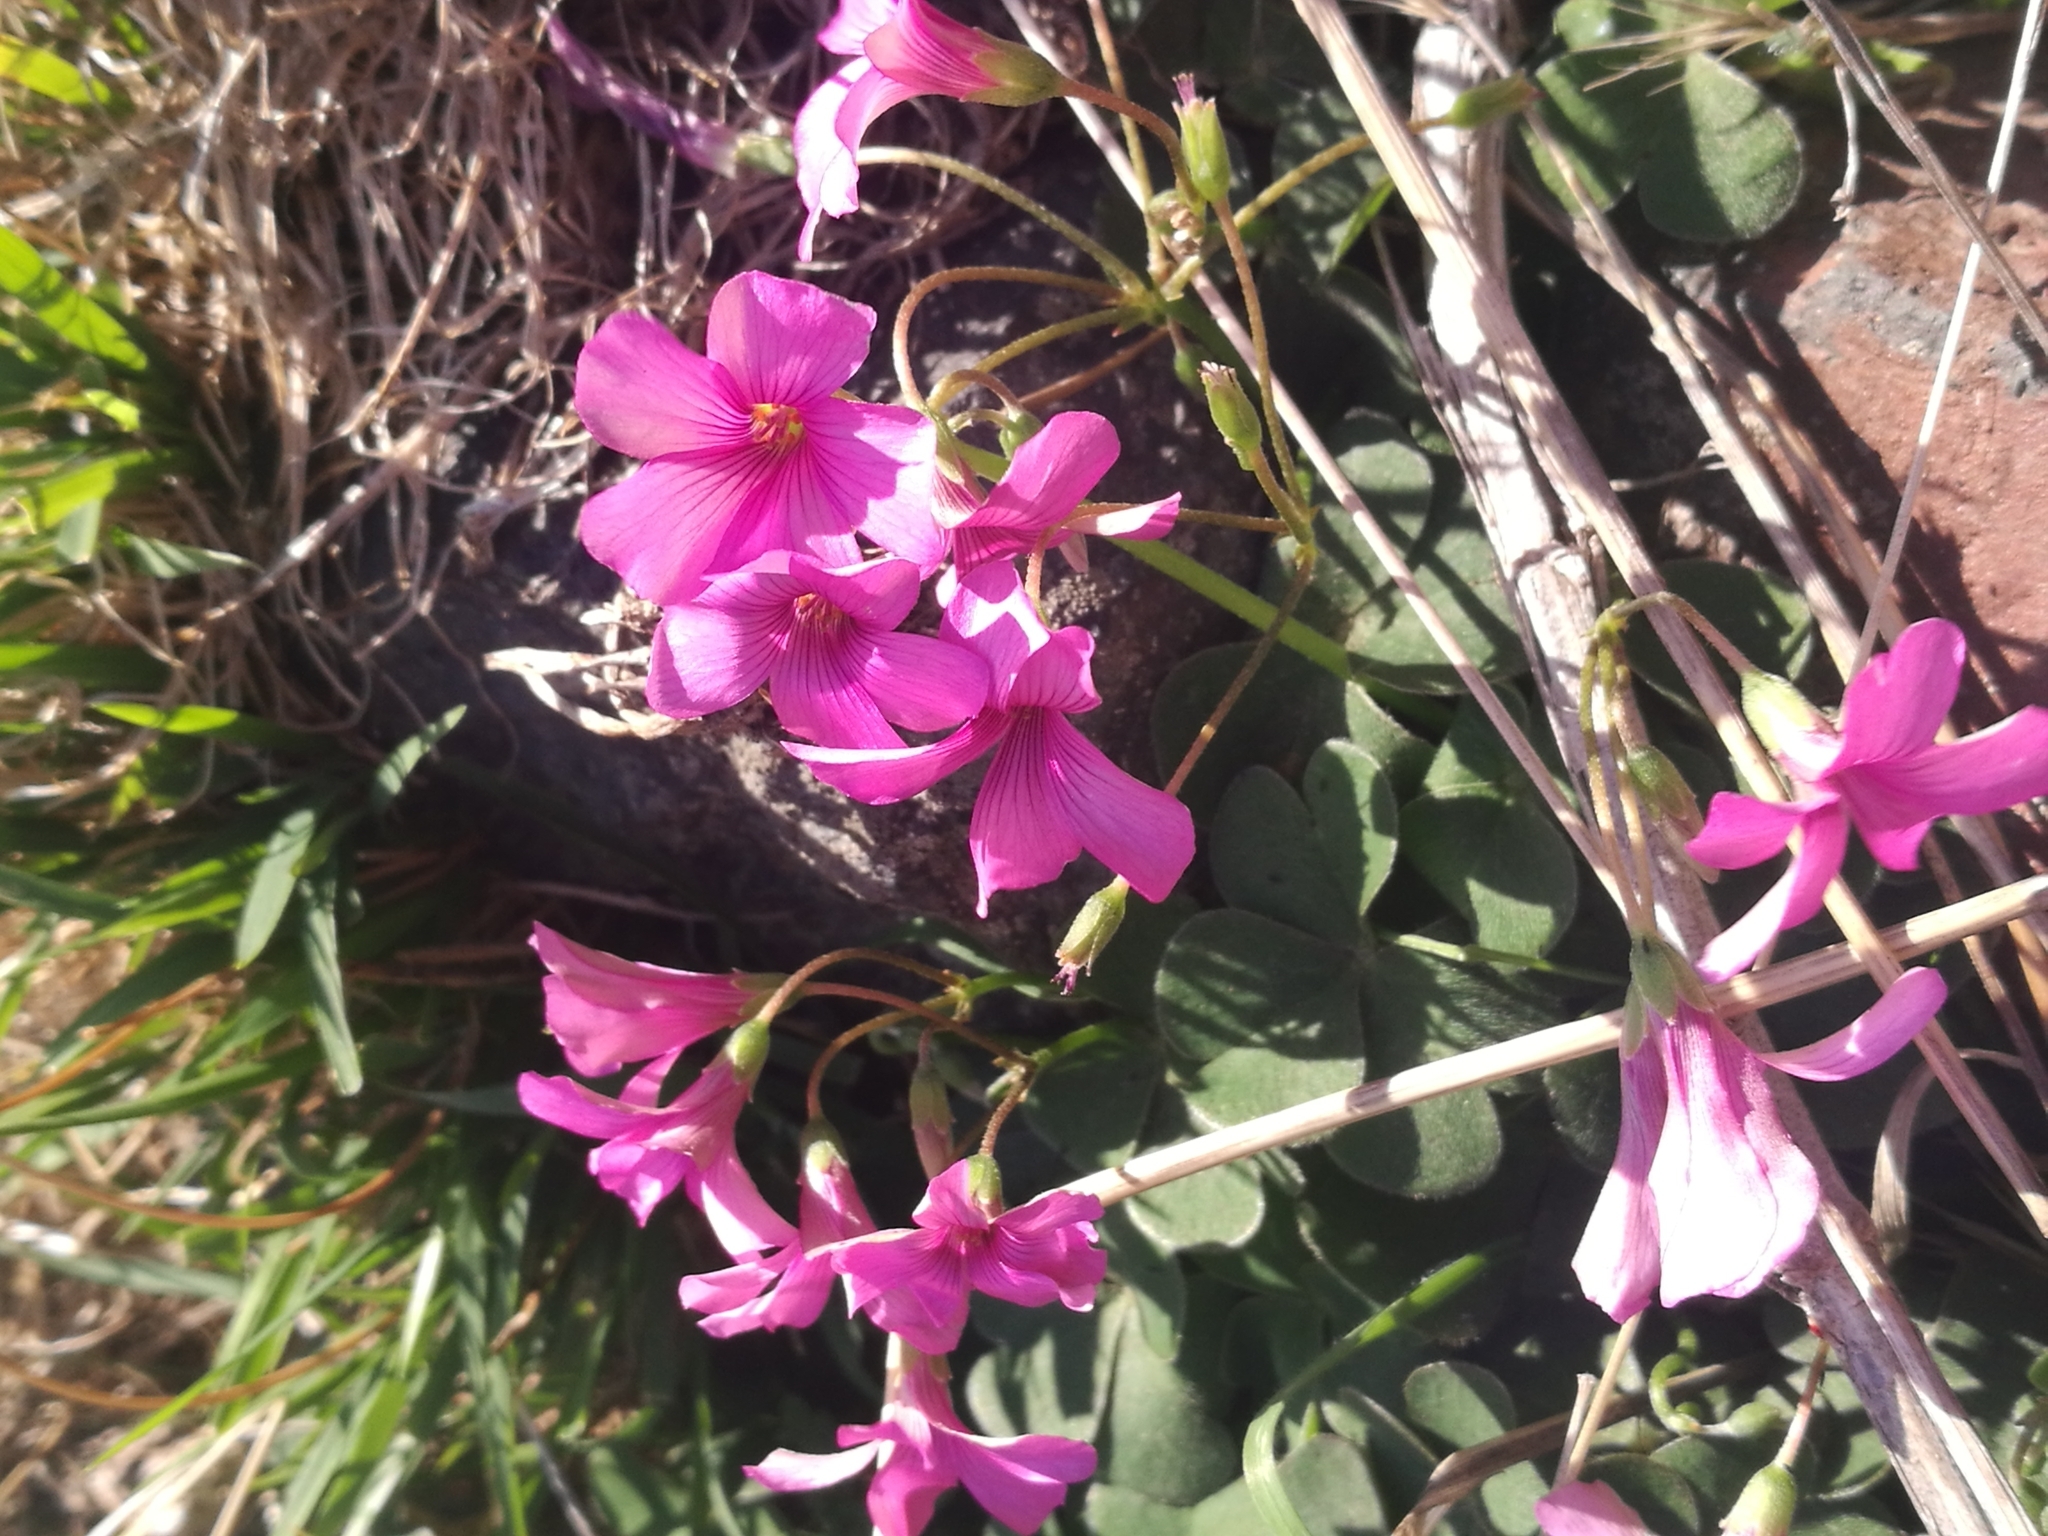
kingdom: Plantae
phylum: Tracheophyta
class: Magnoliopsida
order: Oxalidales
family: Oxalidaceae
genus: Oxalis
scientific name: Oxalis articulata
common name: Pink-sorrel
